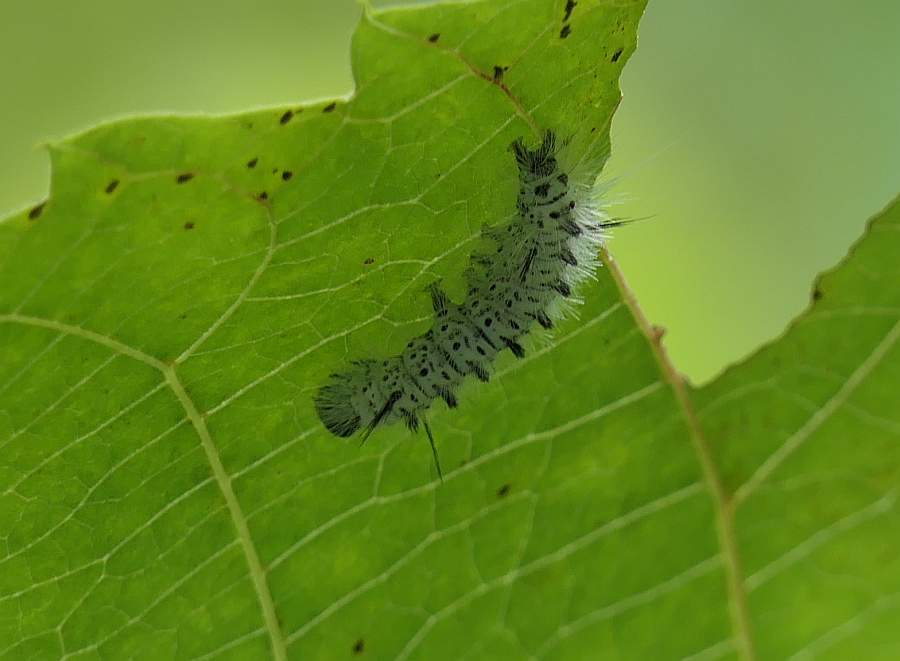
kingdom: Animalia
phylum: Arthropoda
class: Insecta
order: Lepidoptera
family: Erebidae
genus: Lophocampa
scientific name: Lophocampa caryae
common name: Hickory tussock moth
